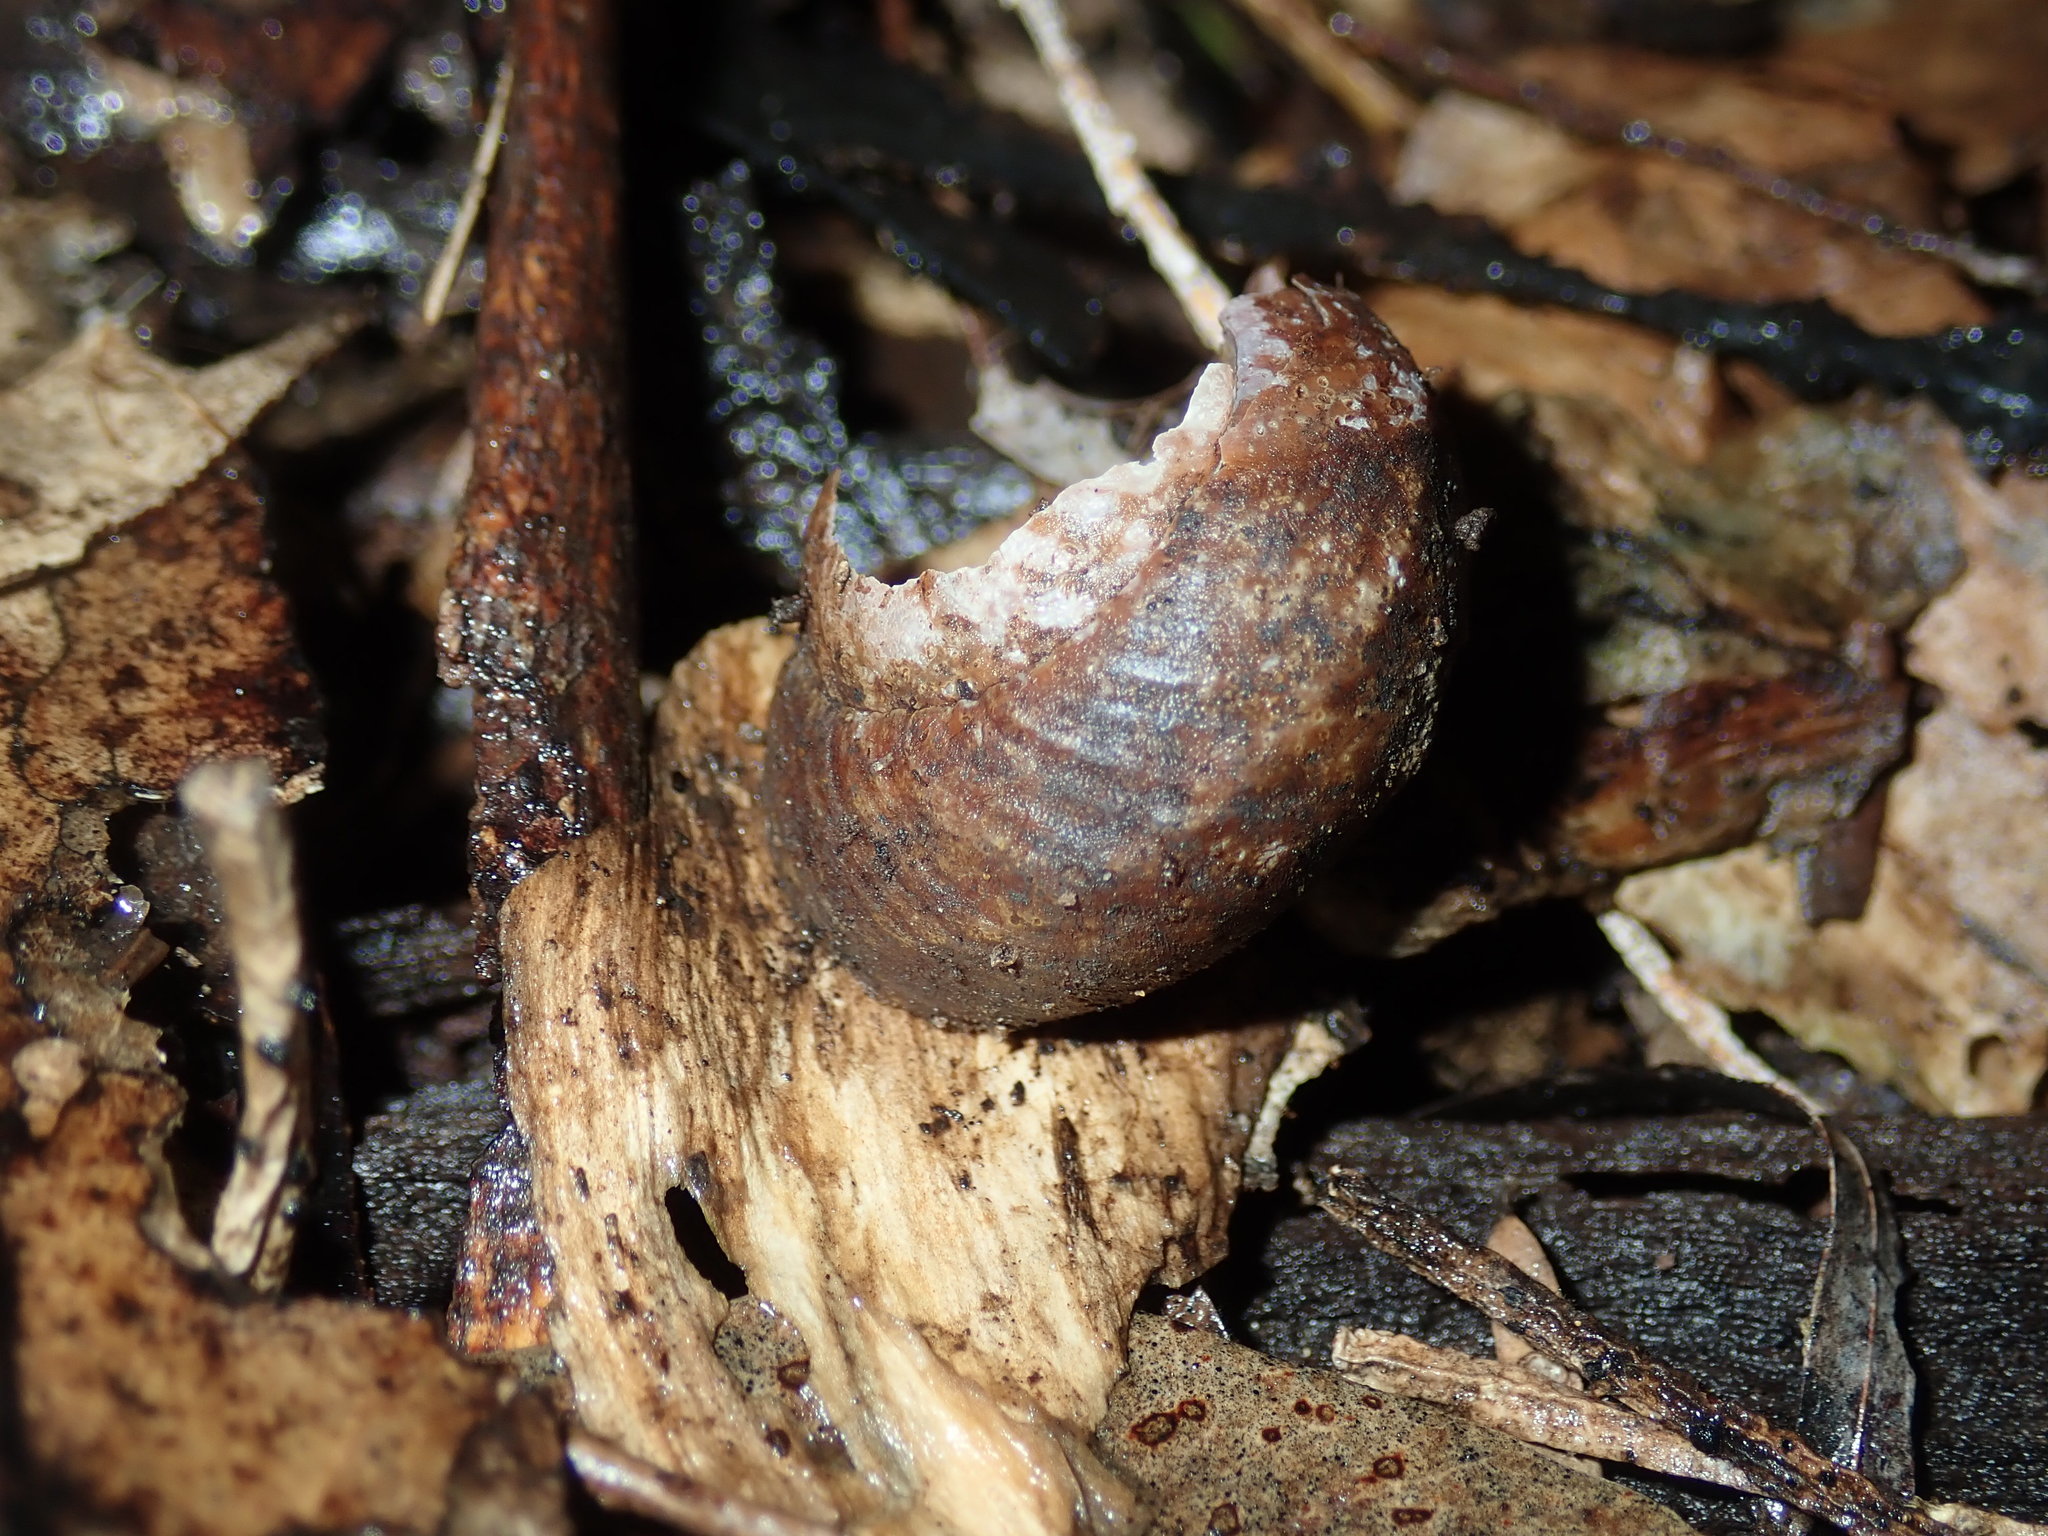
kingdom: Animalia
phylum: Mollusca
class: Gastropoda
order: Stylommatophora
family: Camaenidae
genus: Sauroconcha
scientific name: Sauroconcha sheai
